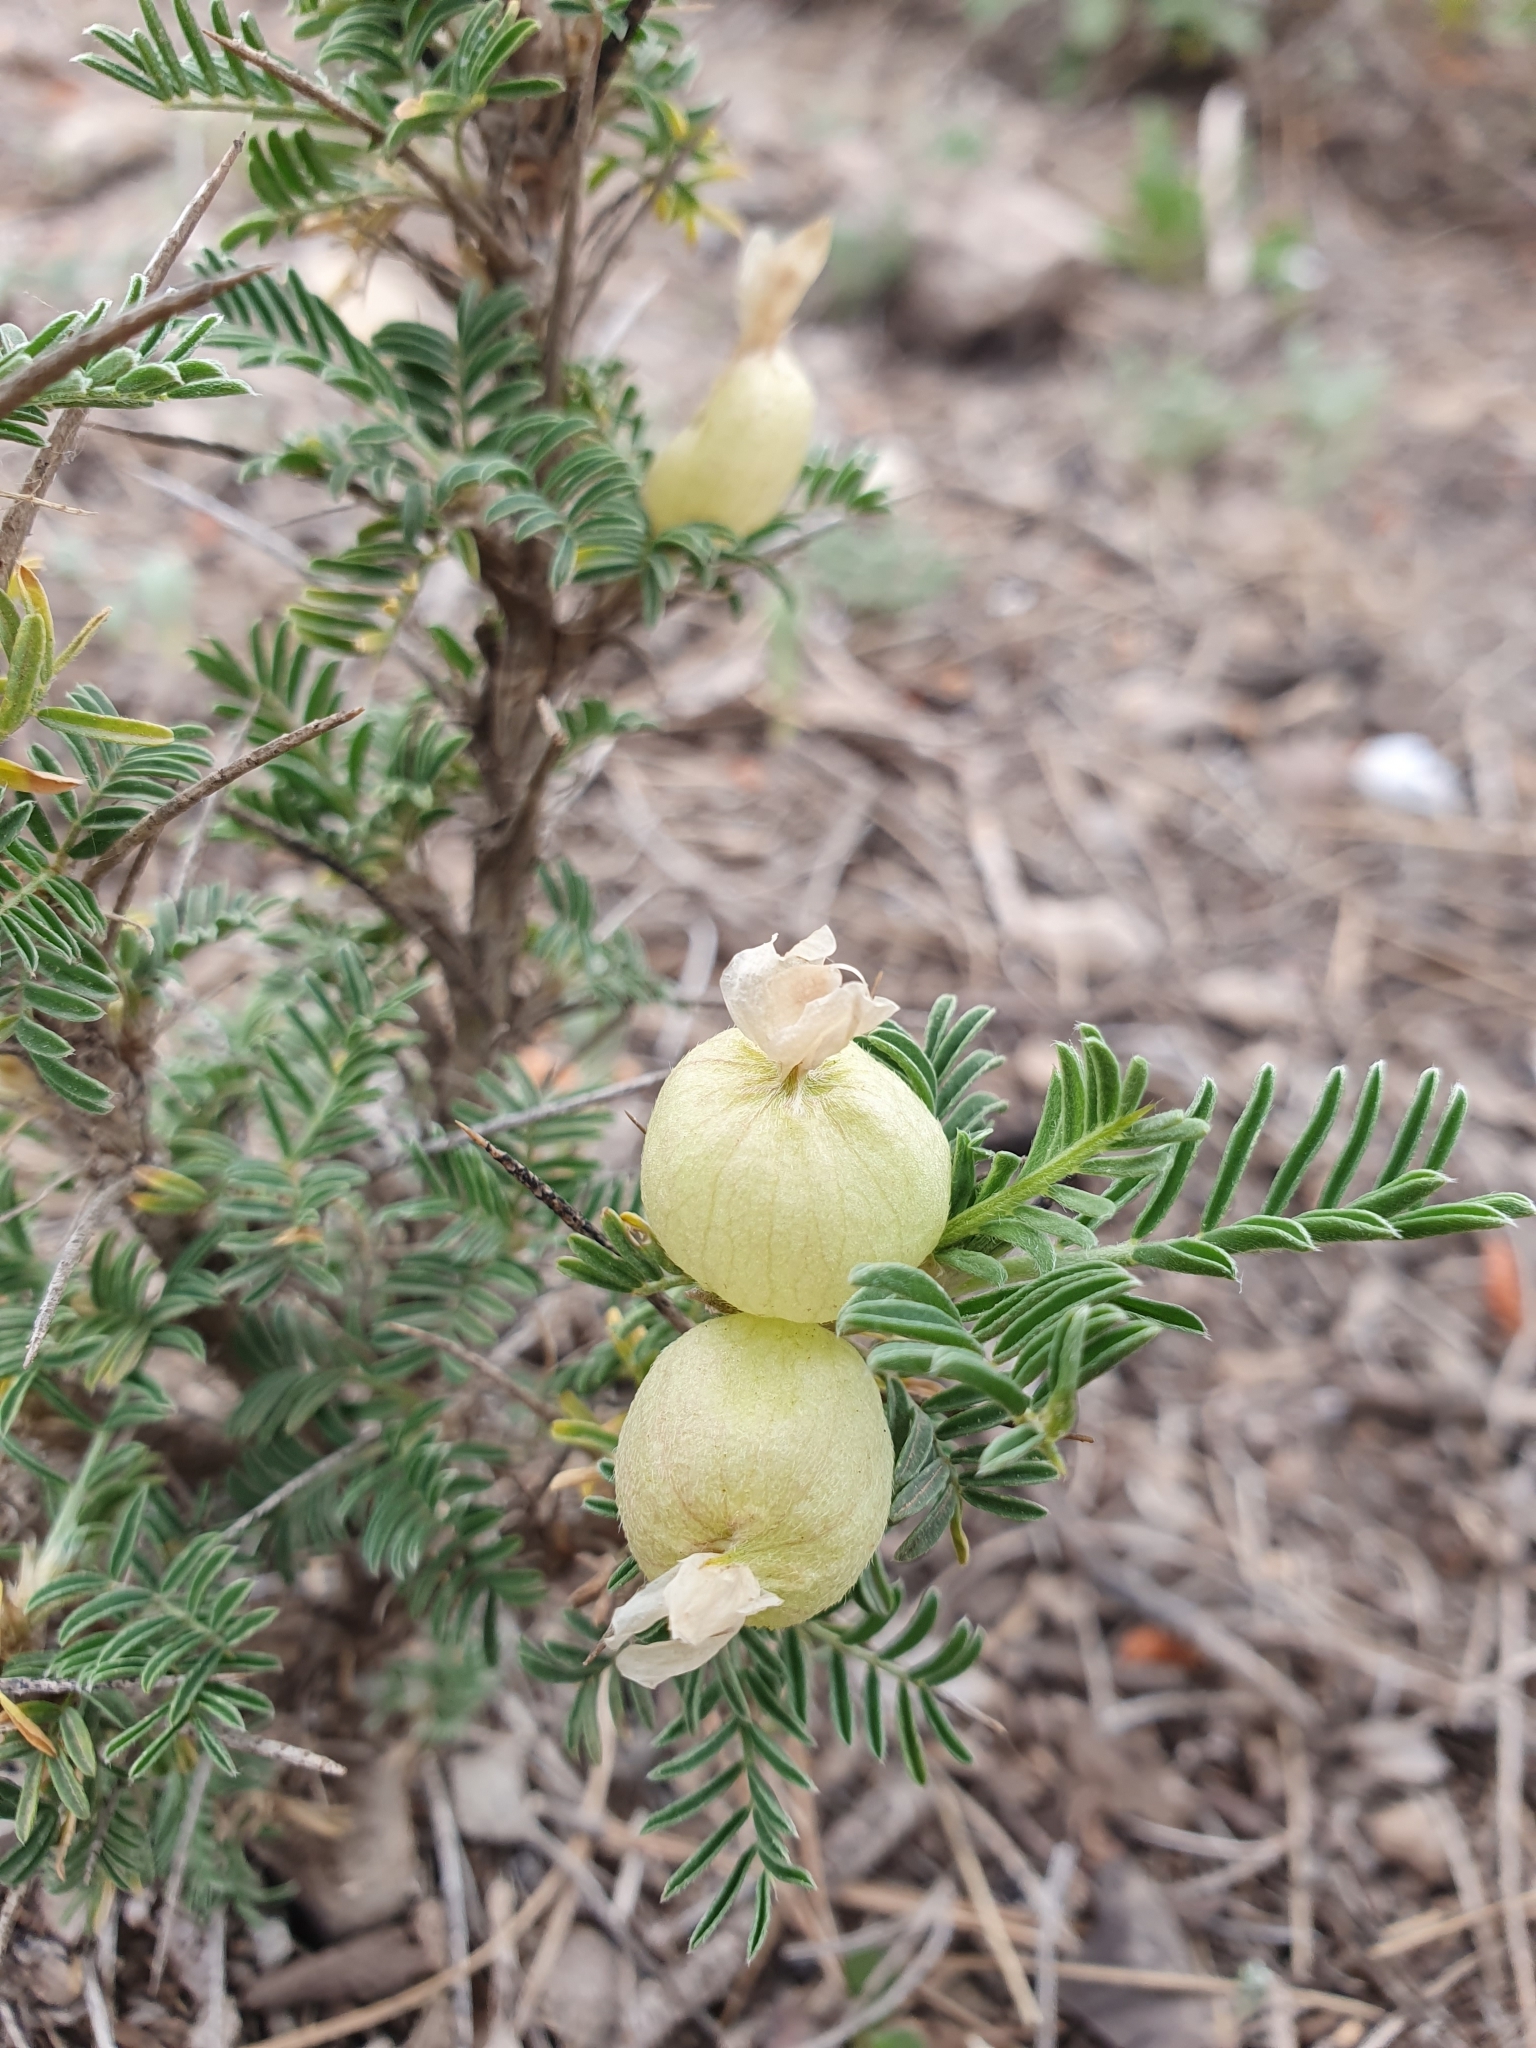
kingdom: Plantae
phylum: Tracheophyta
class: Magnoliopsida
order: Fabales
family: Fabaceae
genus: Astragalus
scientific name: Astragalus armatus
